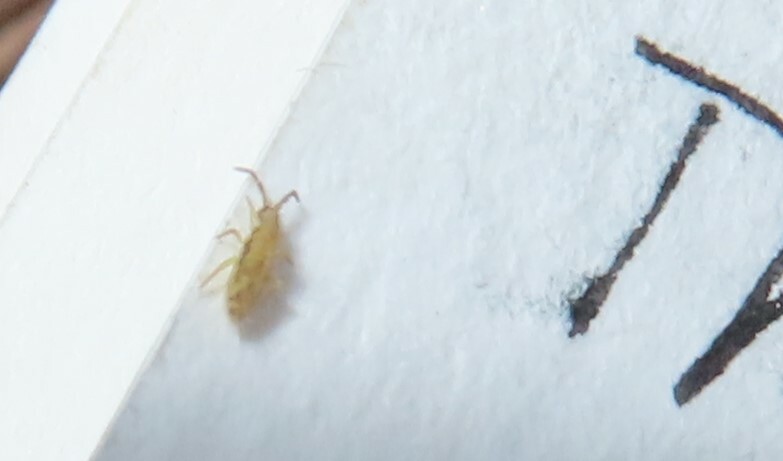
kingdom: Animalia
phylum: Arthropoda
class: Collembola
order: Entomobryomorpha
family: Entomobryidae
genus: Homidia
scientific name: Homidia socia
